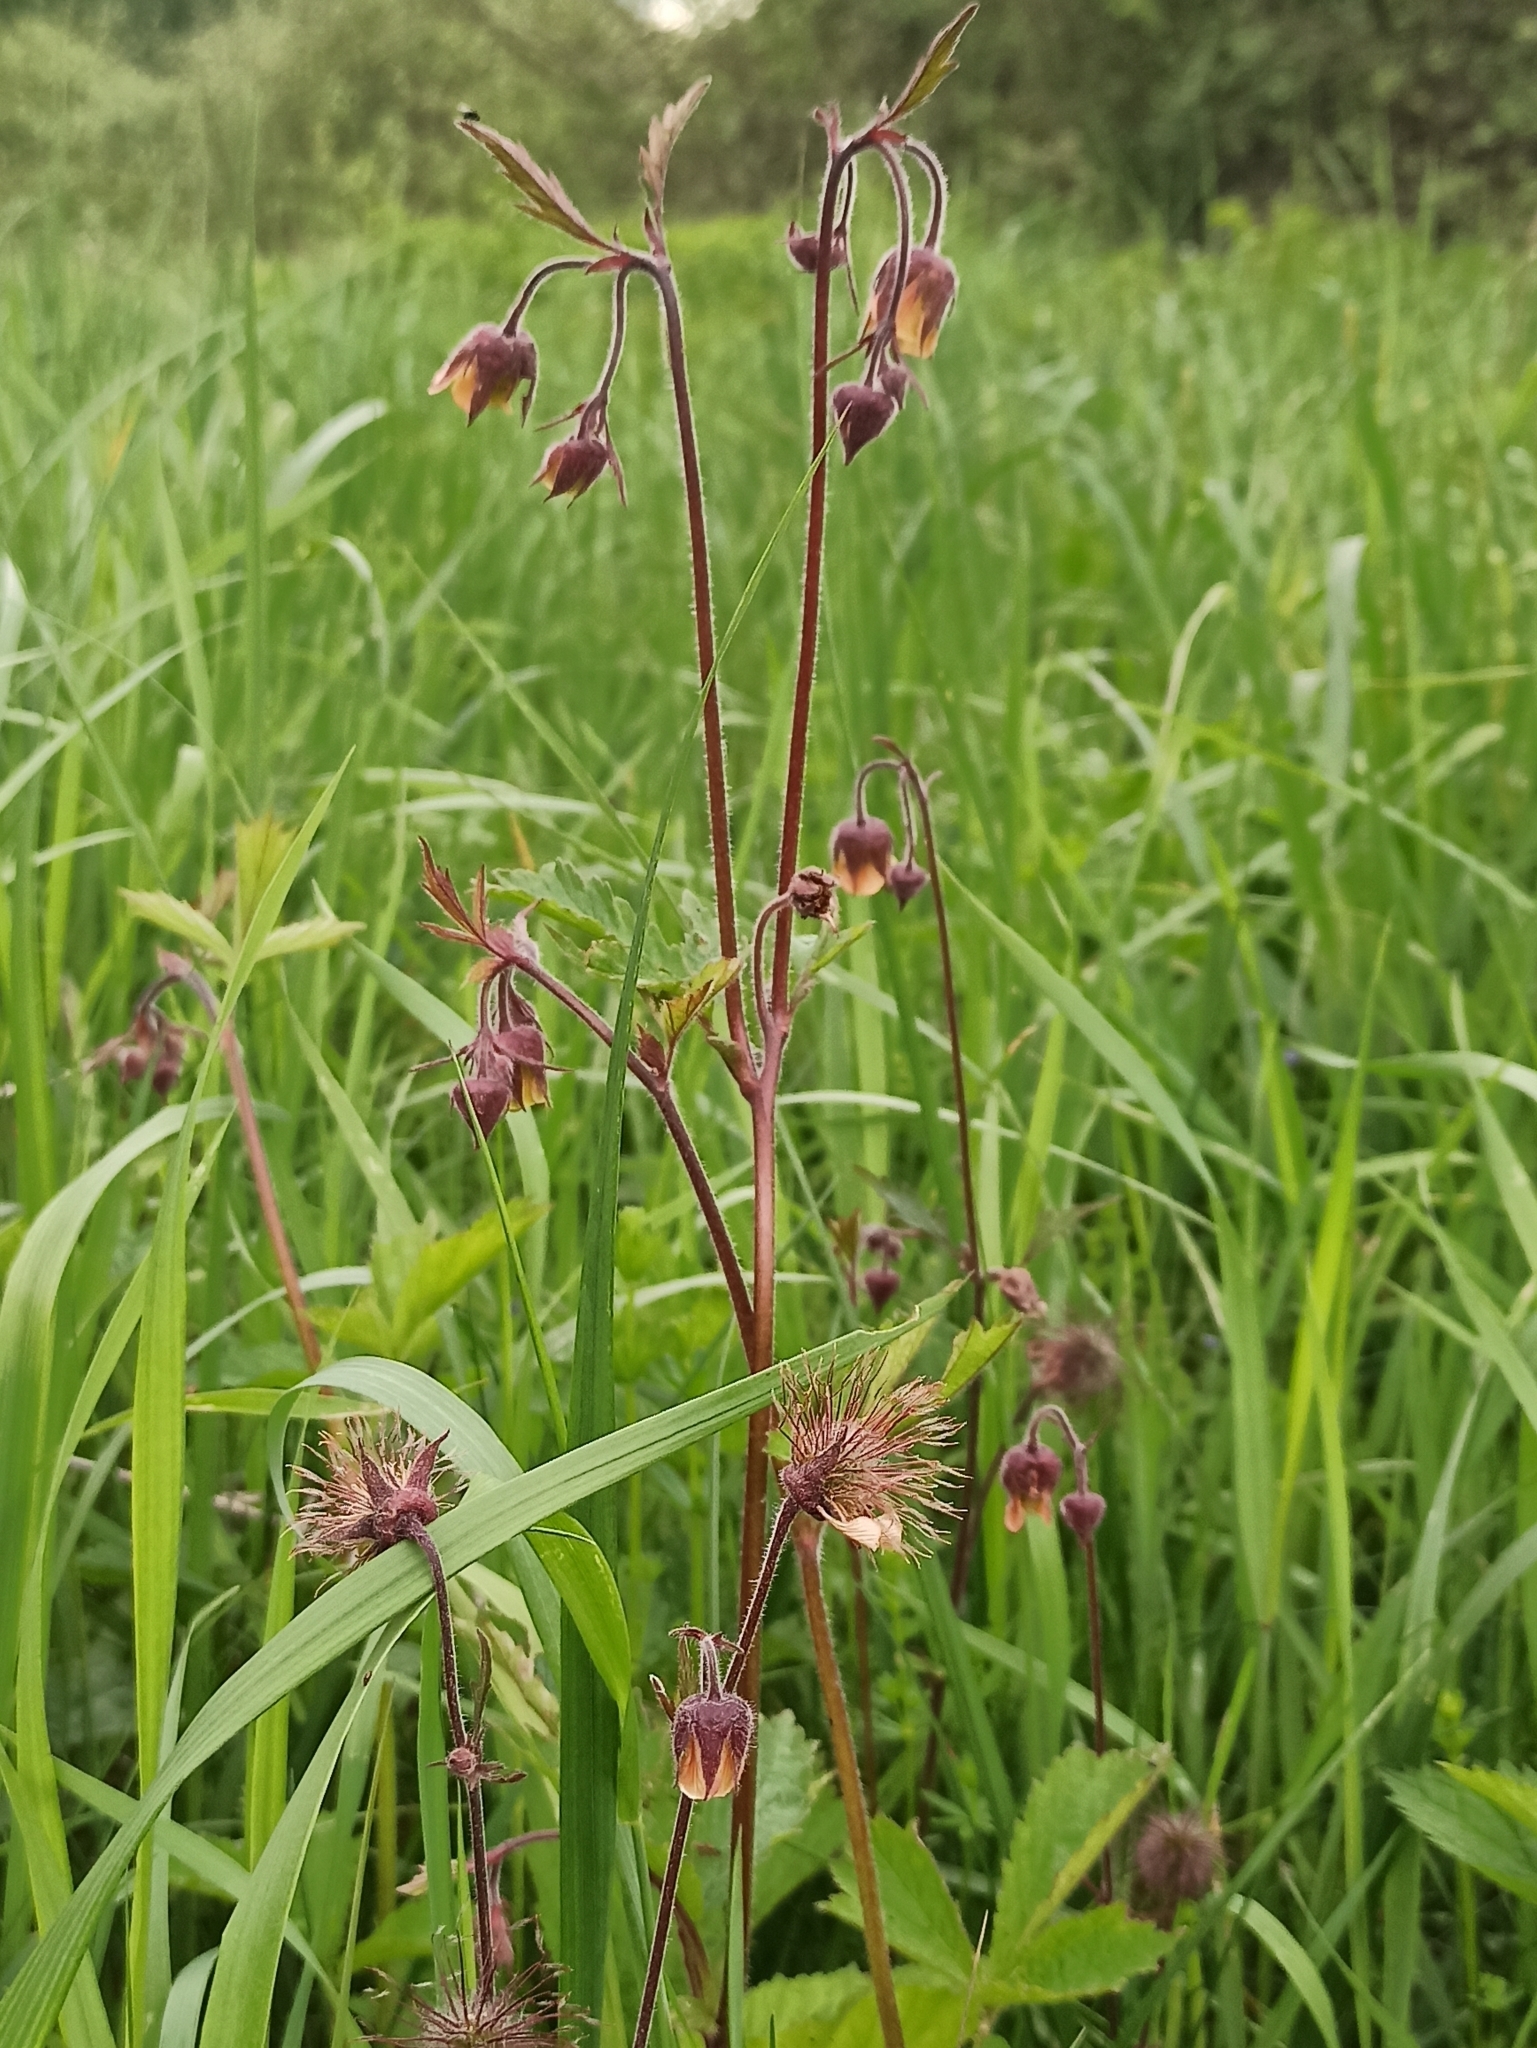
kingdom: Plantae
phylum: Tracheophyta
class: Magnoliopsida
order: Rosales
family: Rosaceae
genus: Geum
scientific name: Geum rivale
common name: Water avens
